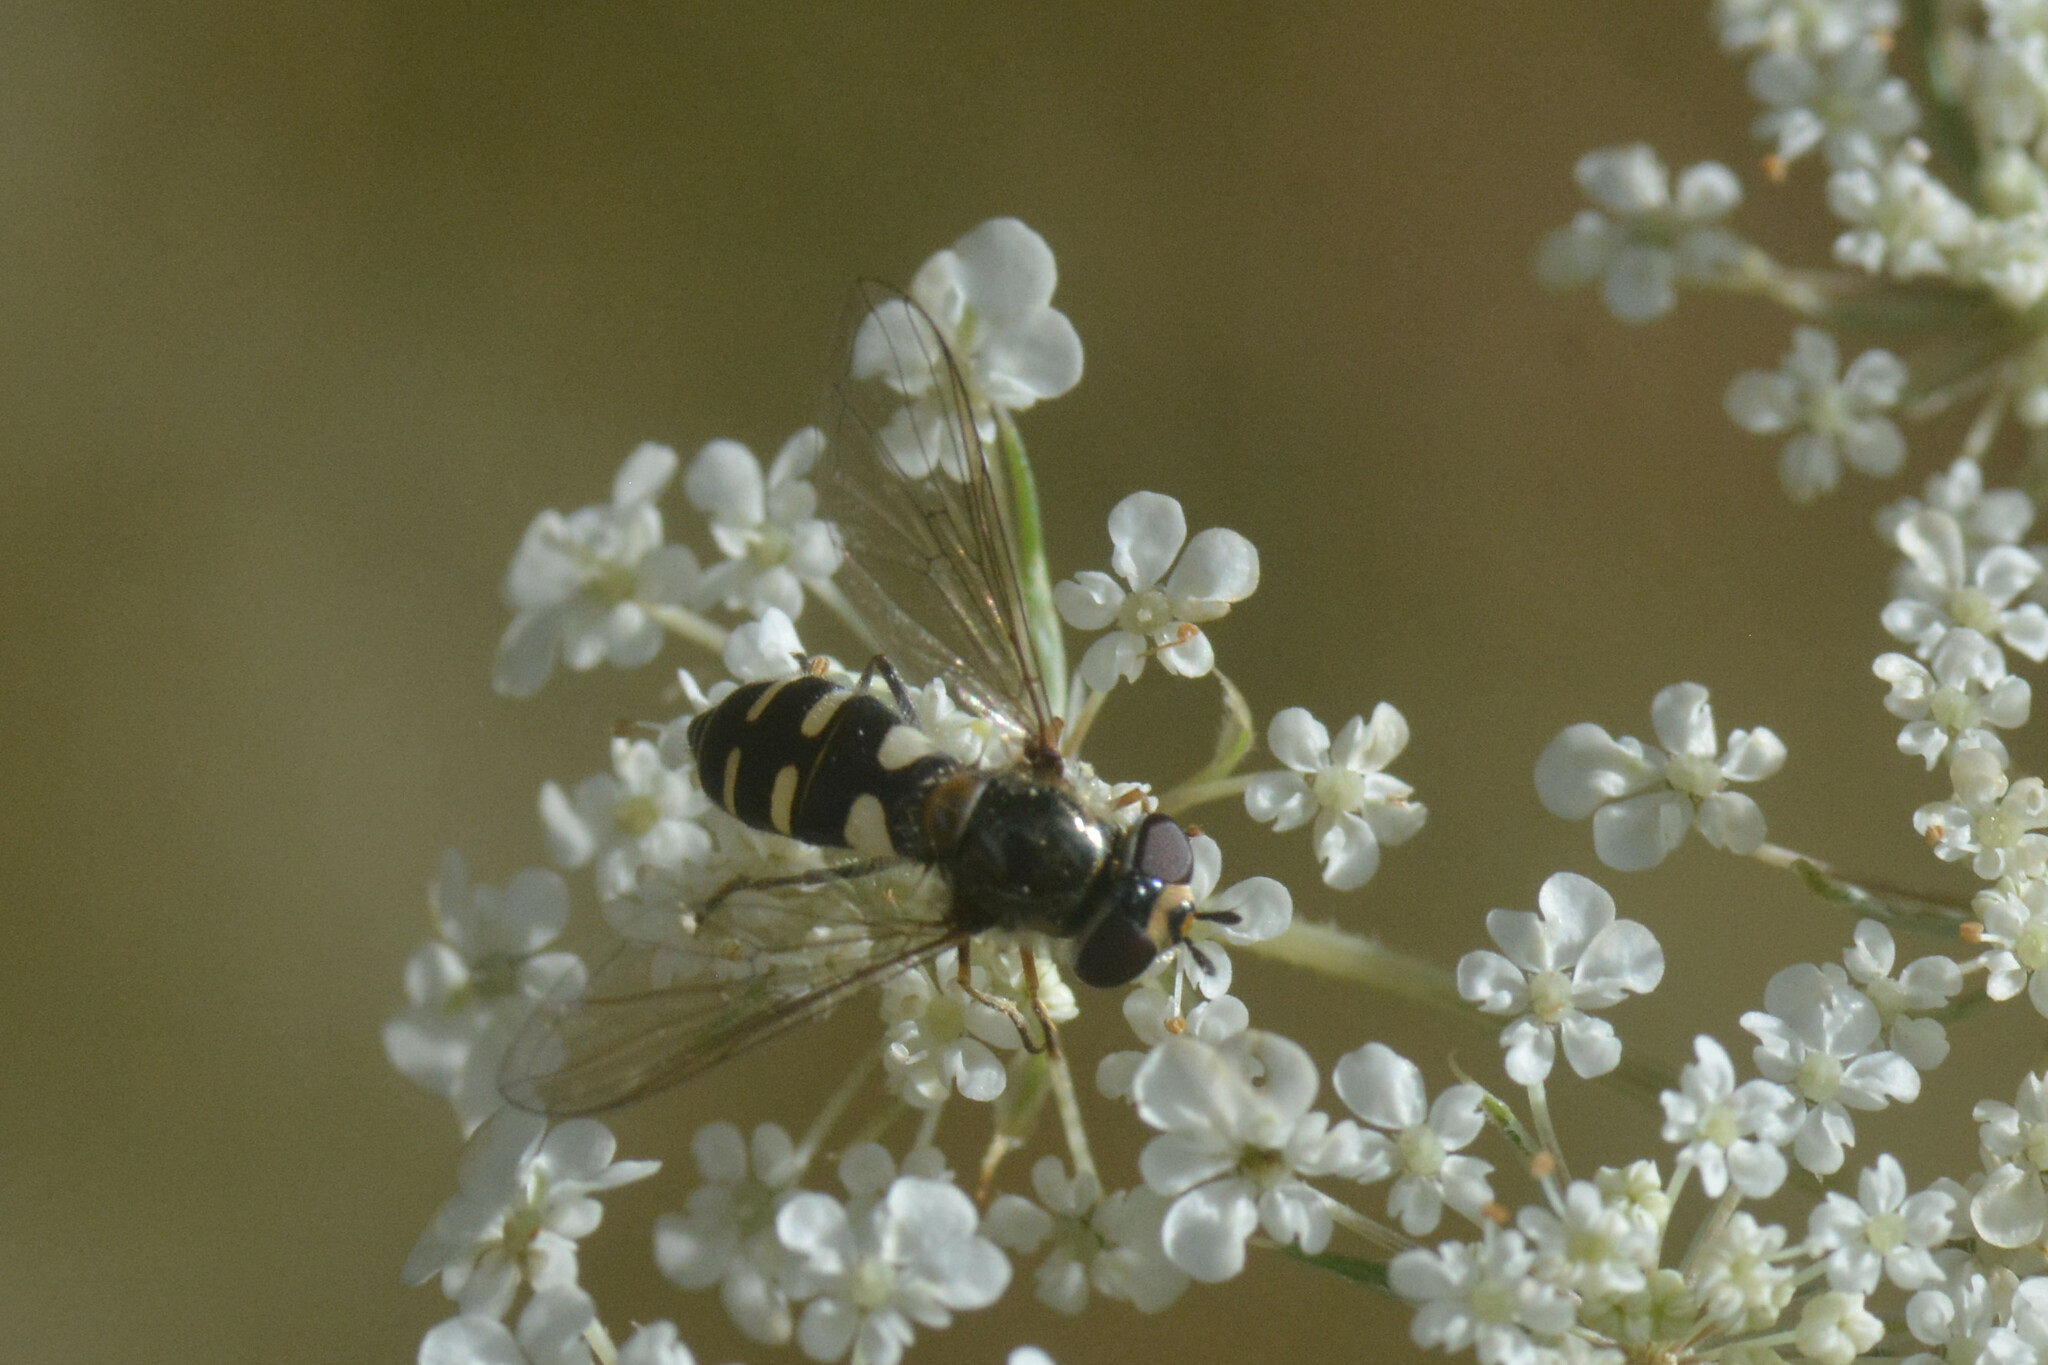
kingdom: Animalia
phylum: Arthropoda
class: Insecta
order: Diptera
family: Syrphidae
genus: Melangyna
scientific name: Melangyna umbellatarum
